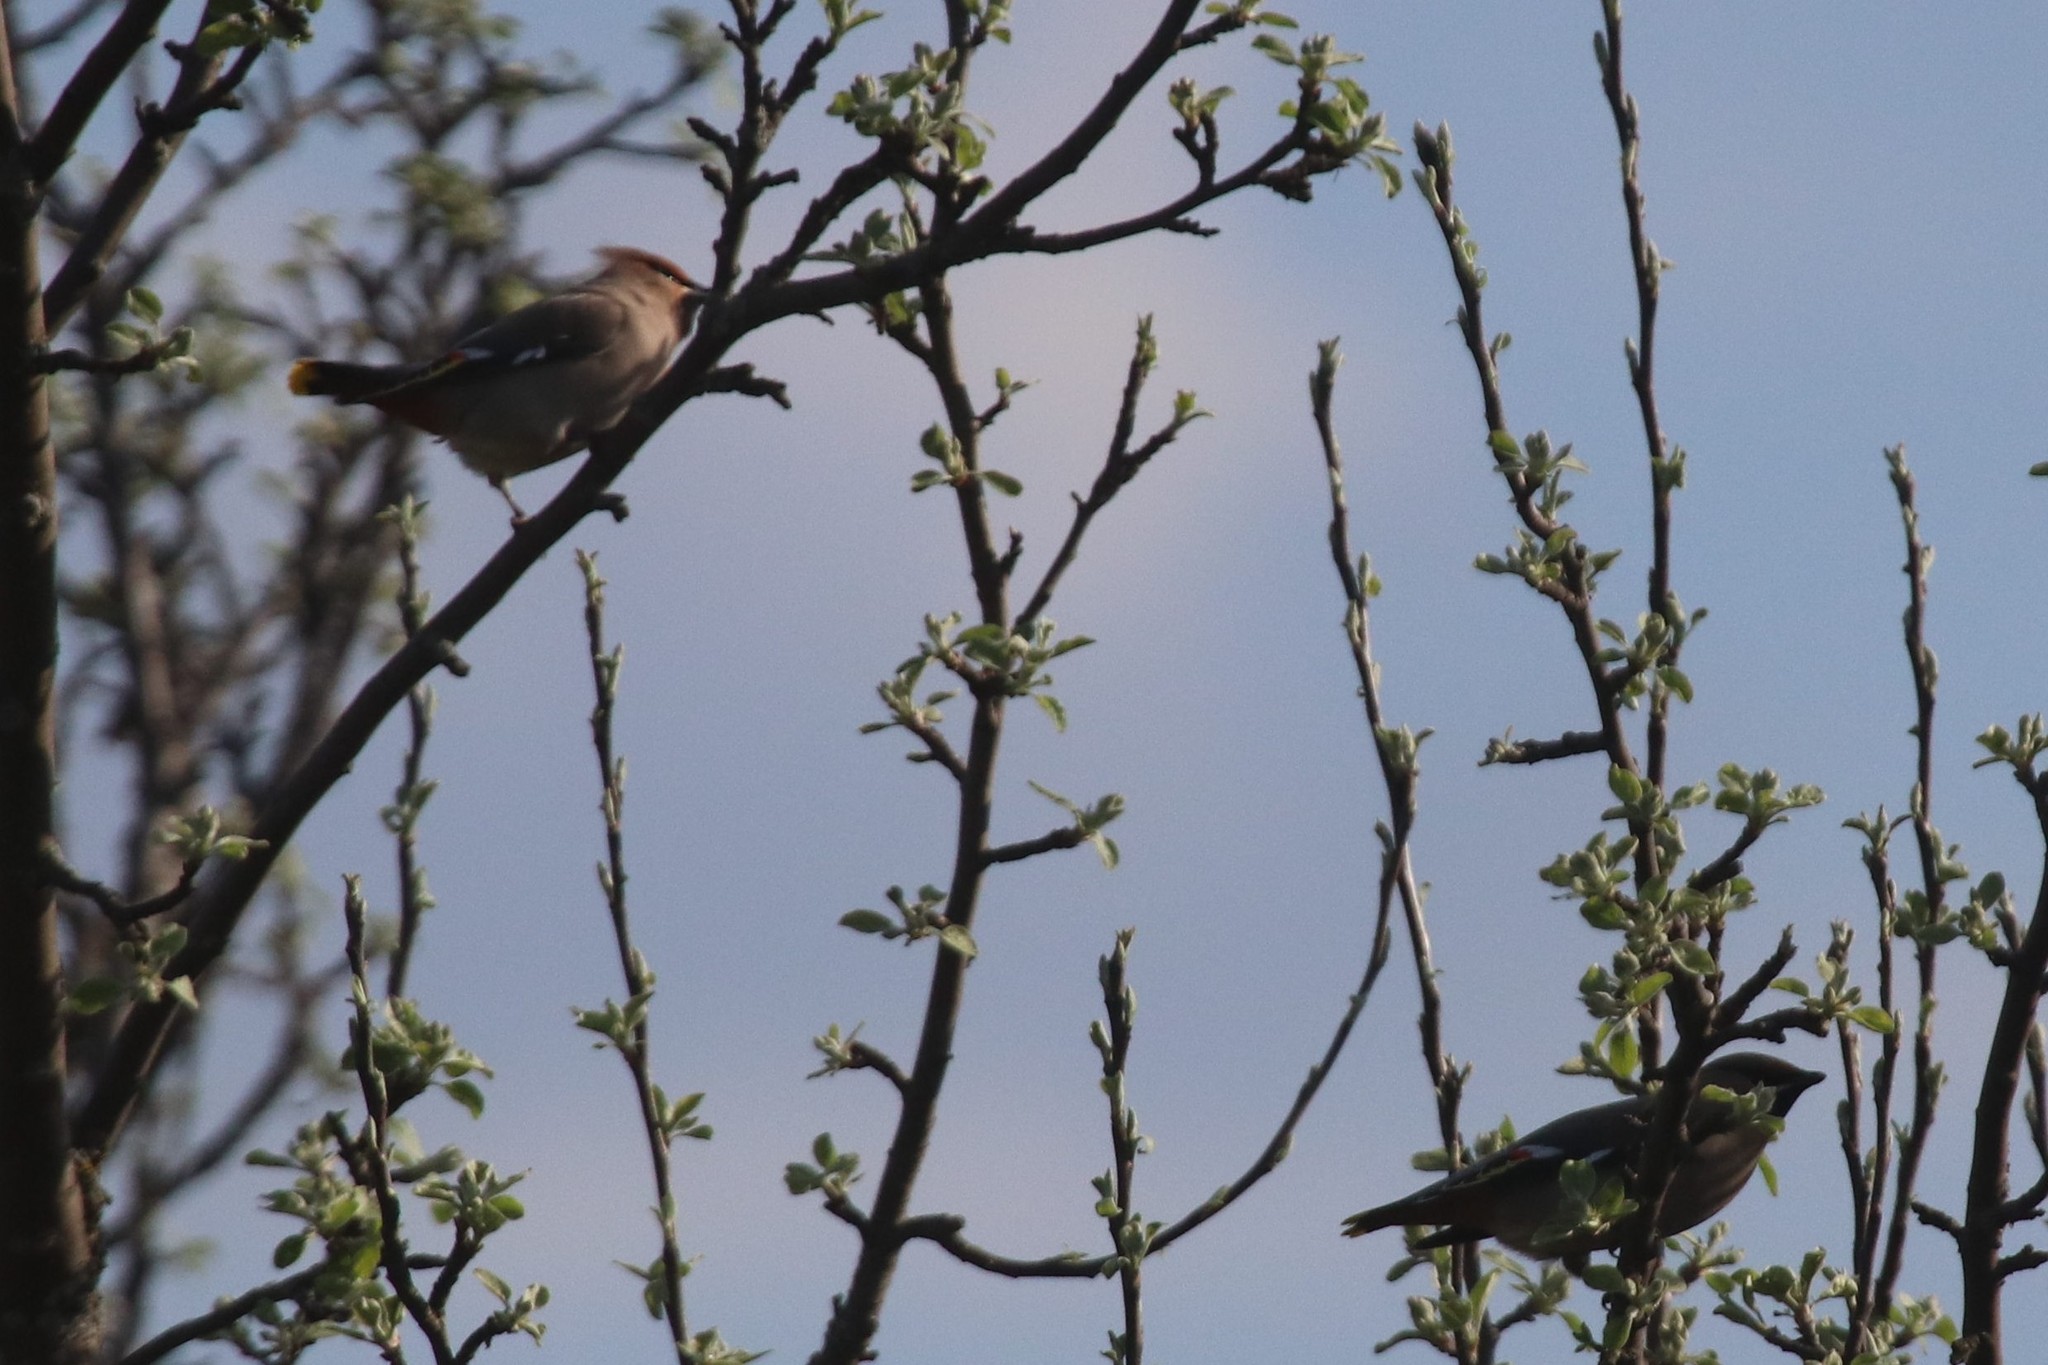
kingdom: Animalia
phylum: Chordata
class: Aves
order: Passeriformes
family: Bombycillidae
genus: Bombycilla
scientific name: Bombycilla garrulus
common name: Bohemian waxwing
